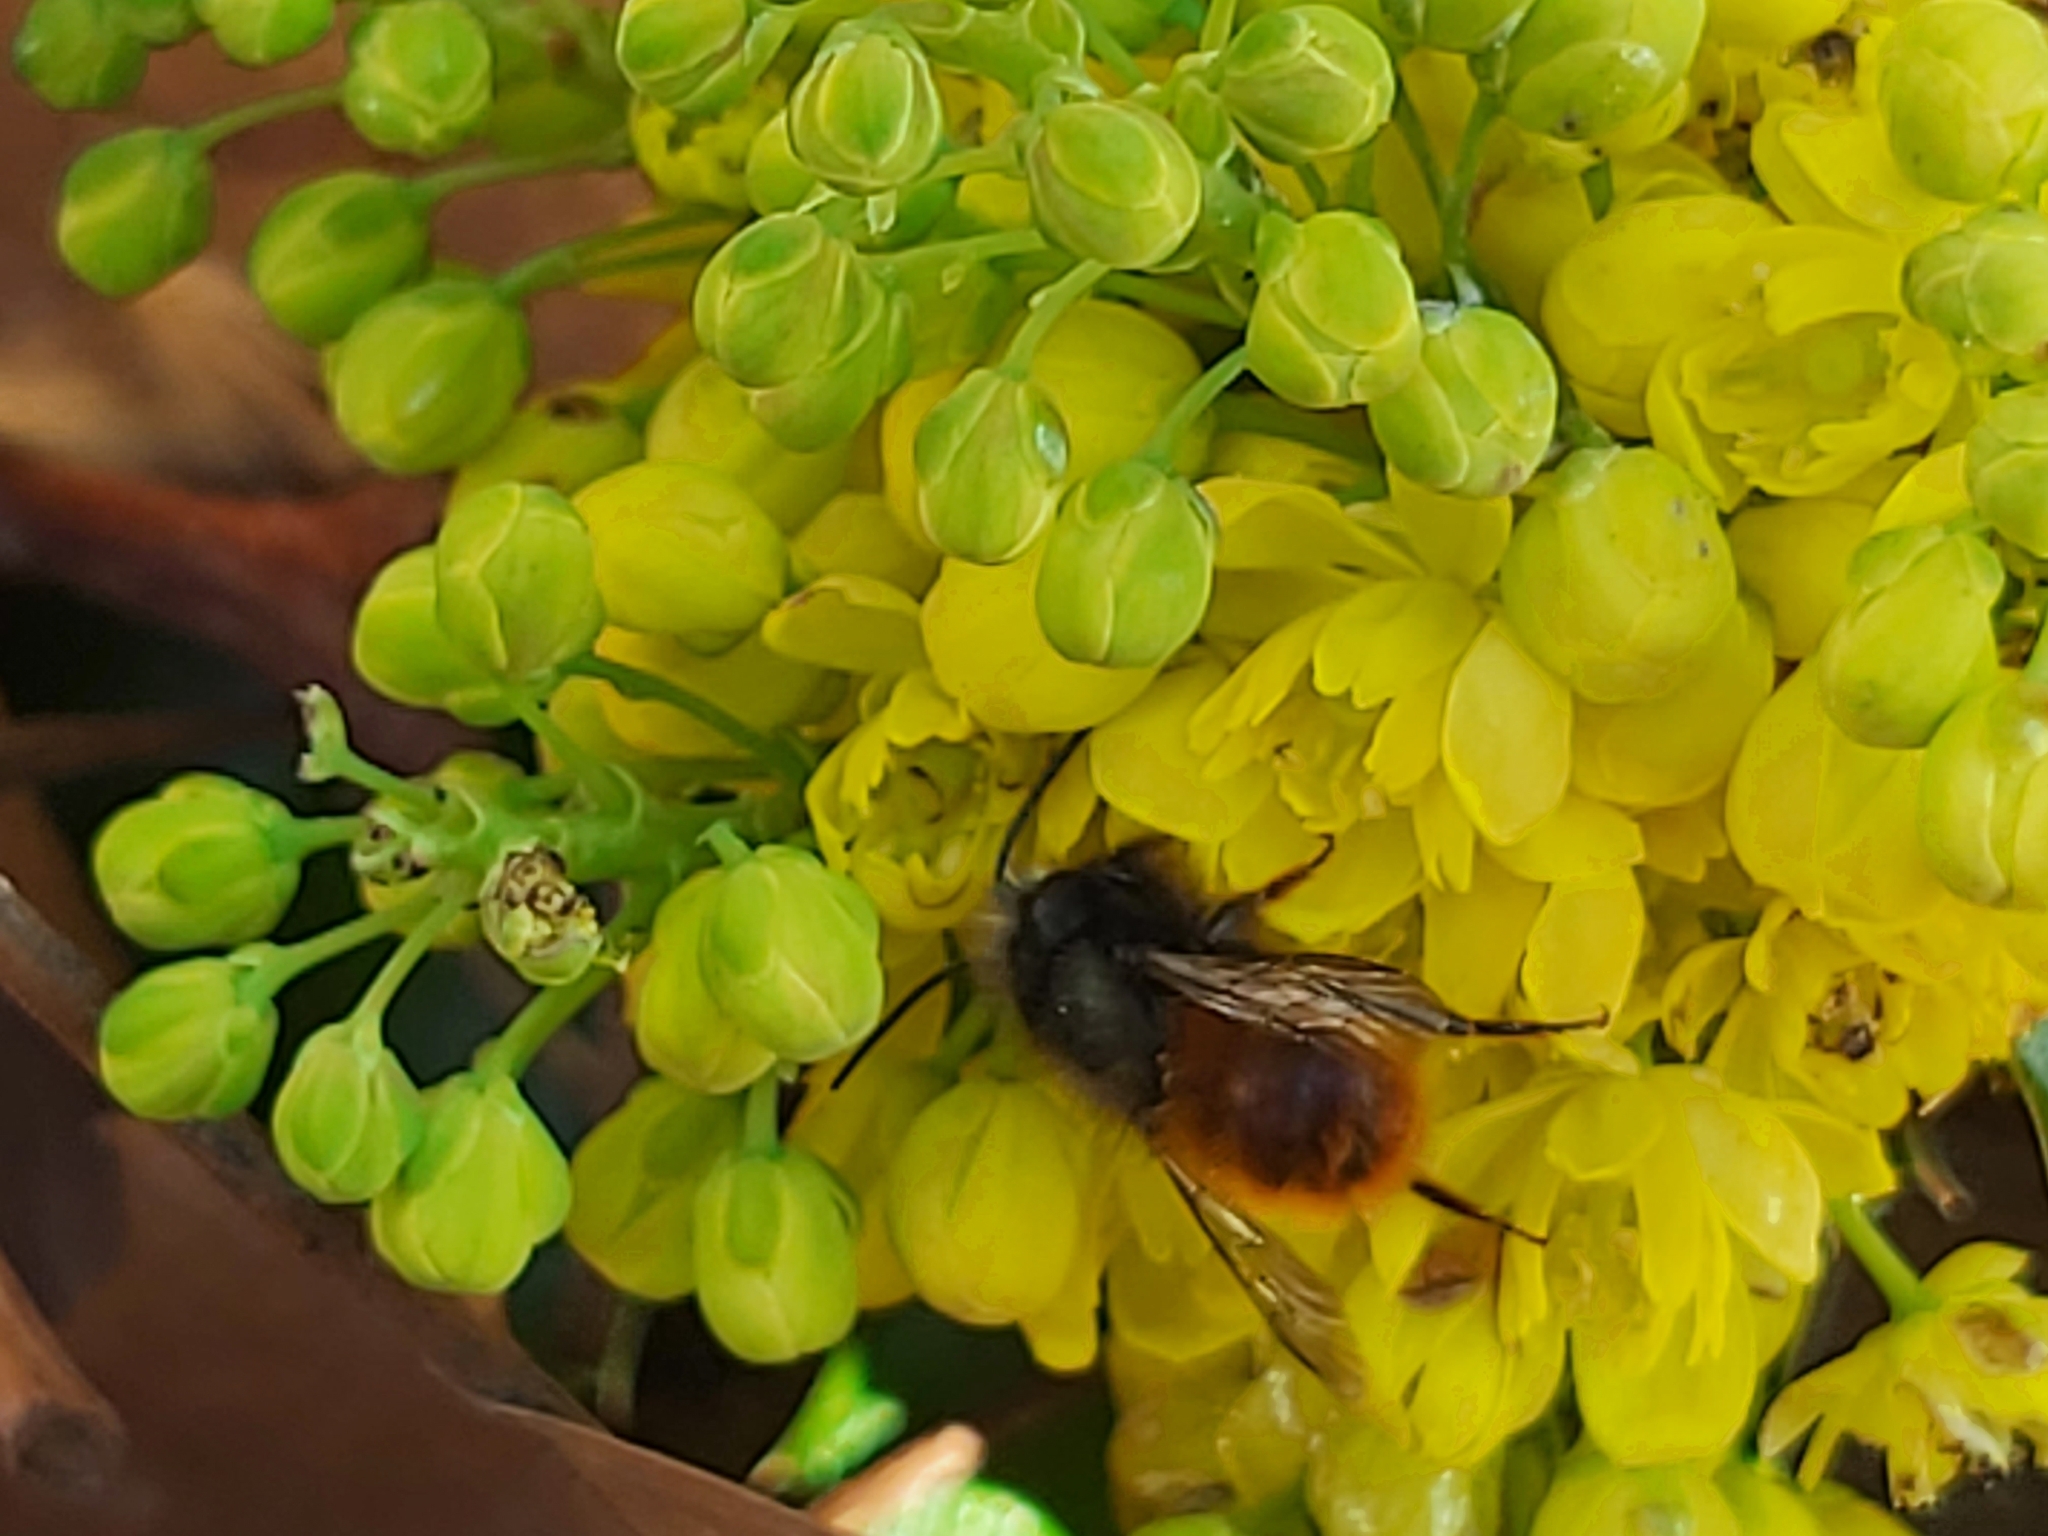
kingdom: Animalia
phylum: Arthropoda
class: Insecta
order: Hymenoptera
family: Megachilidae
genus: Osmia
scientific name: Osmia cornuta
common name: Mason bee
